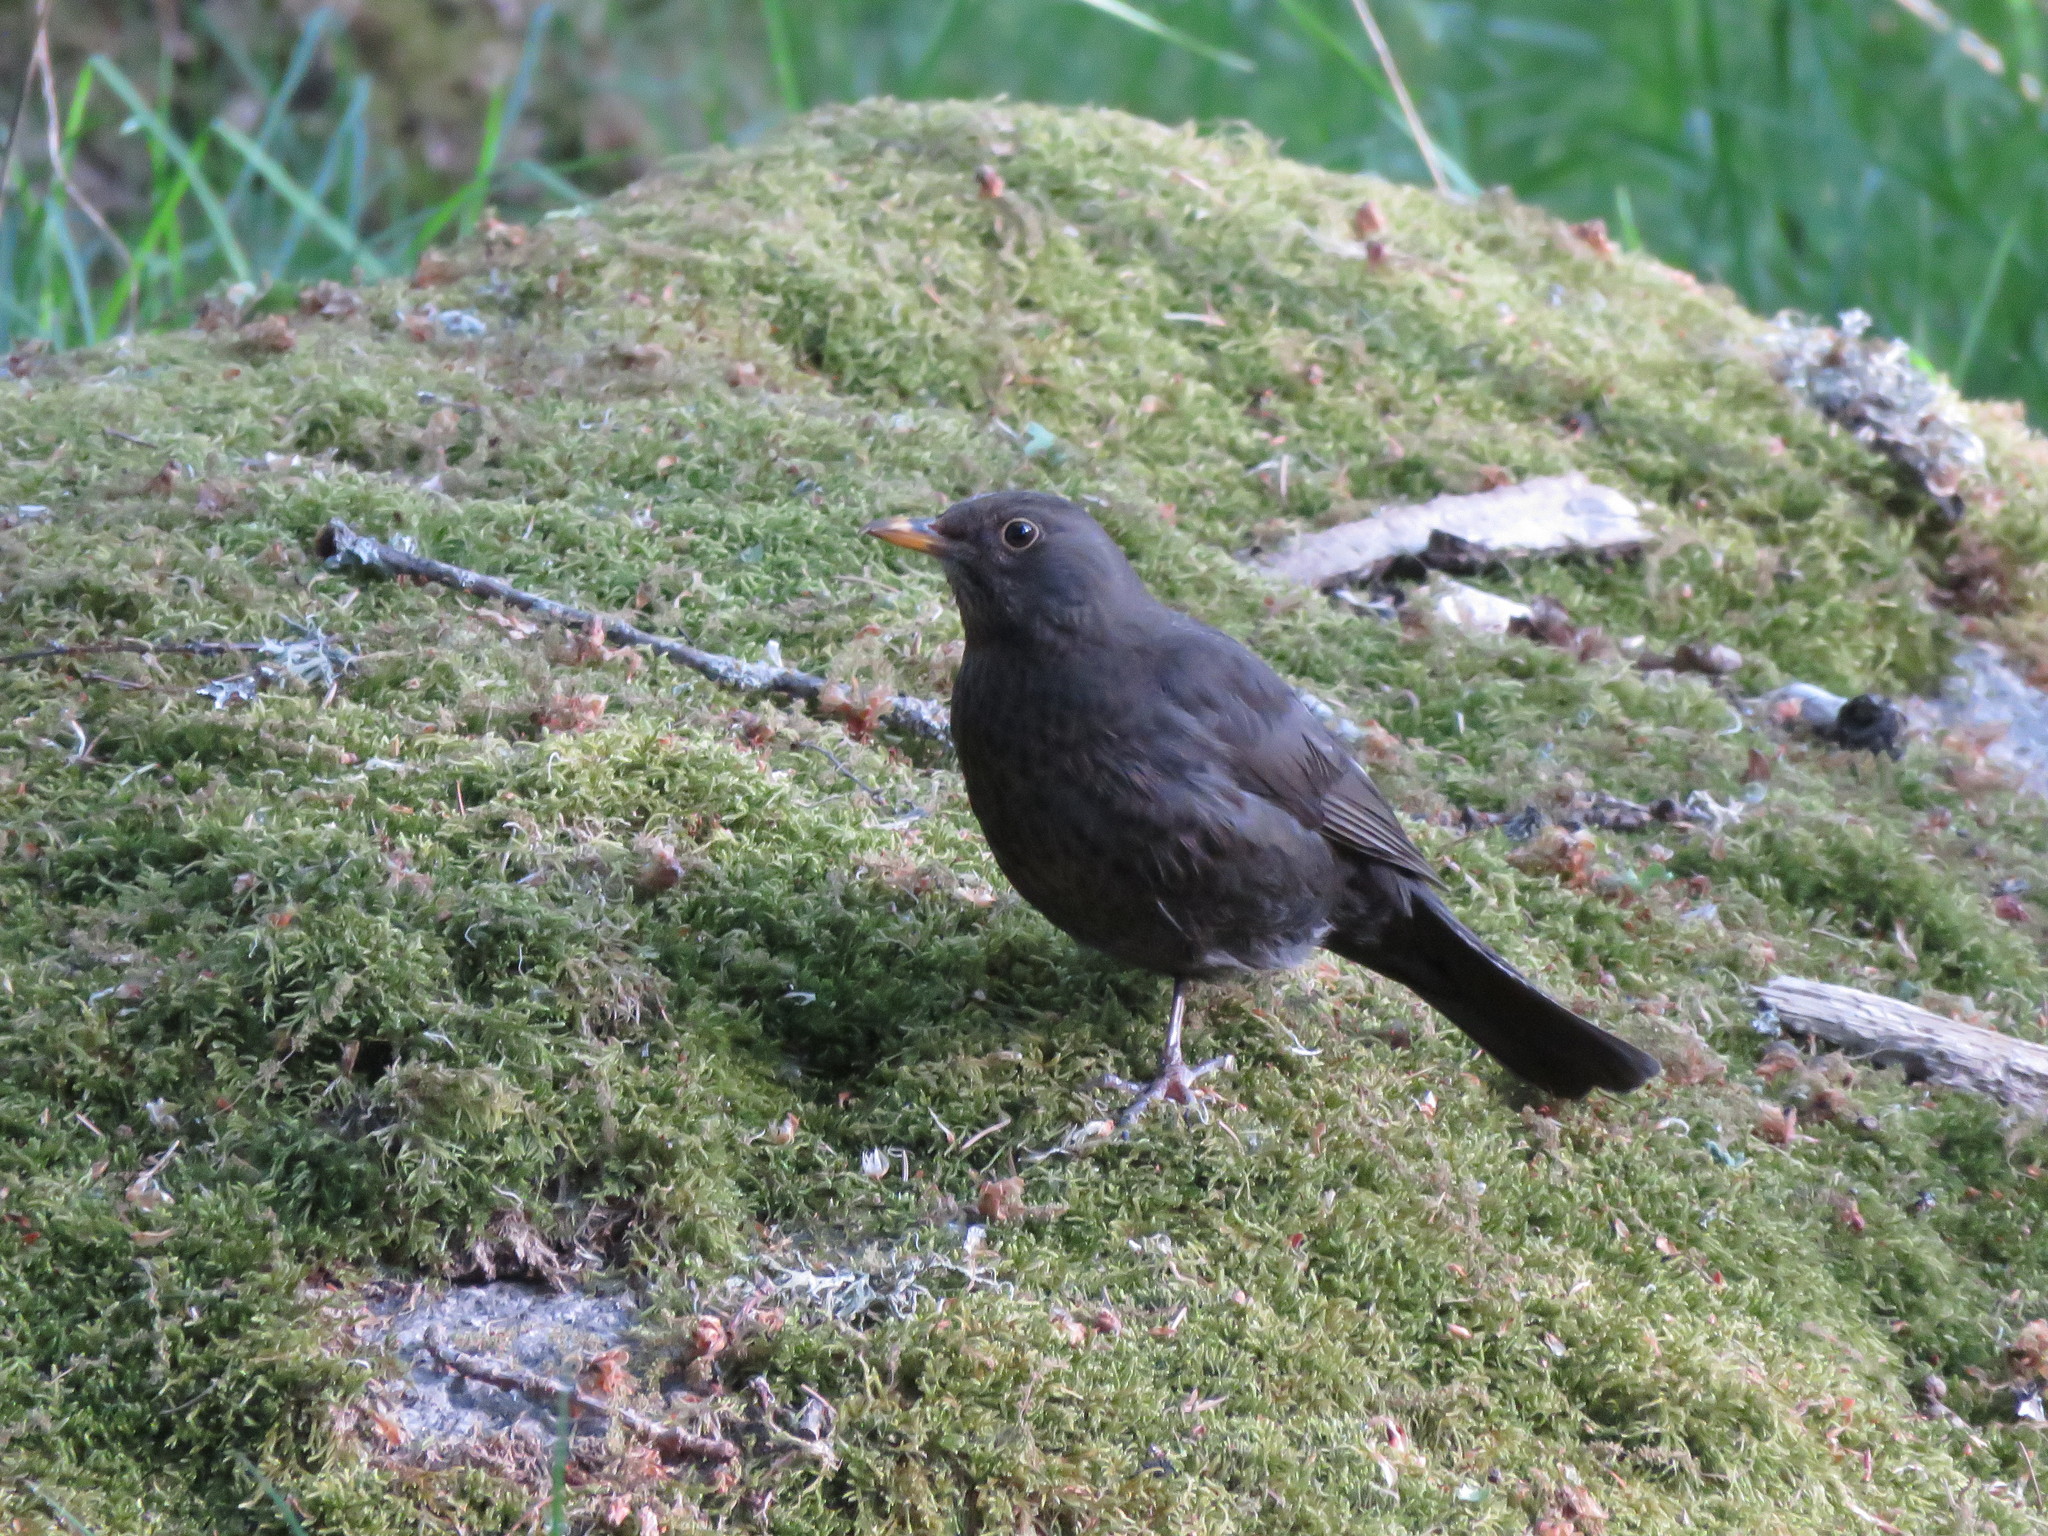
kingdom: Animalia
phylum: Chordata
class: Aves
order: Passeriformes
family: Turdidae
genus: Turdus
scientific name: Turdus merula
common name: Common blackbird
